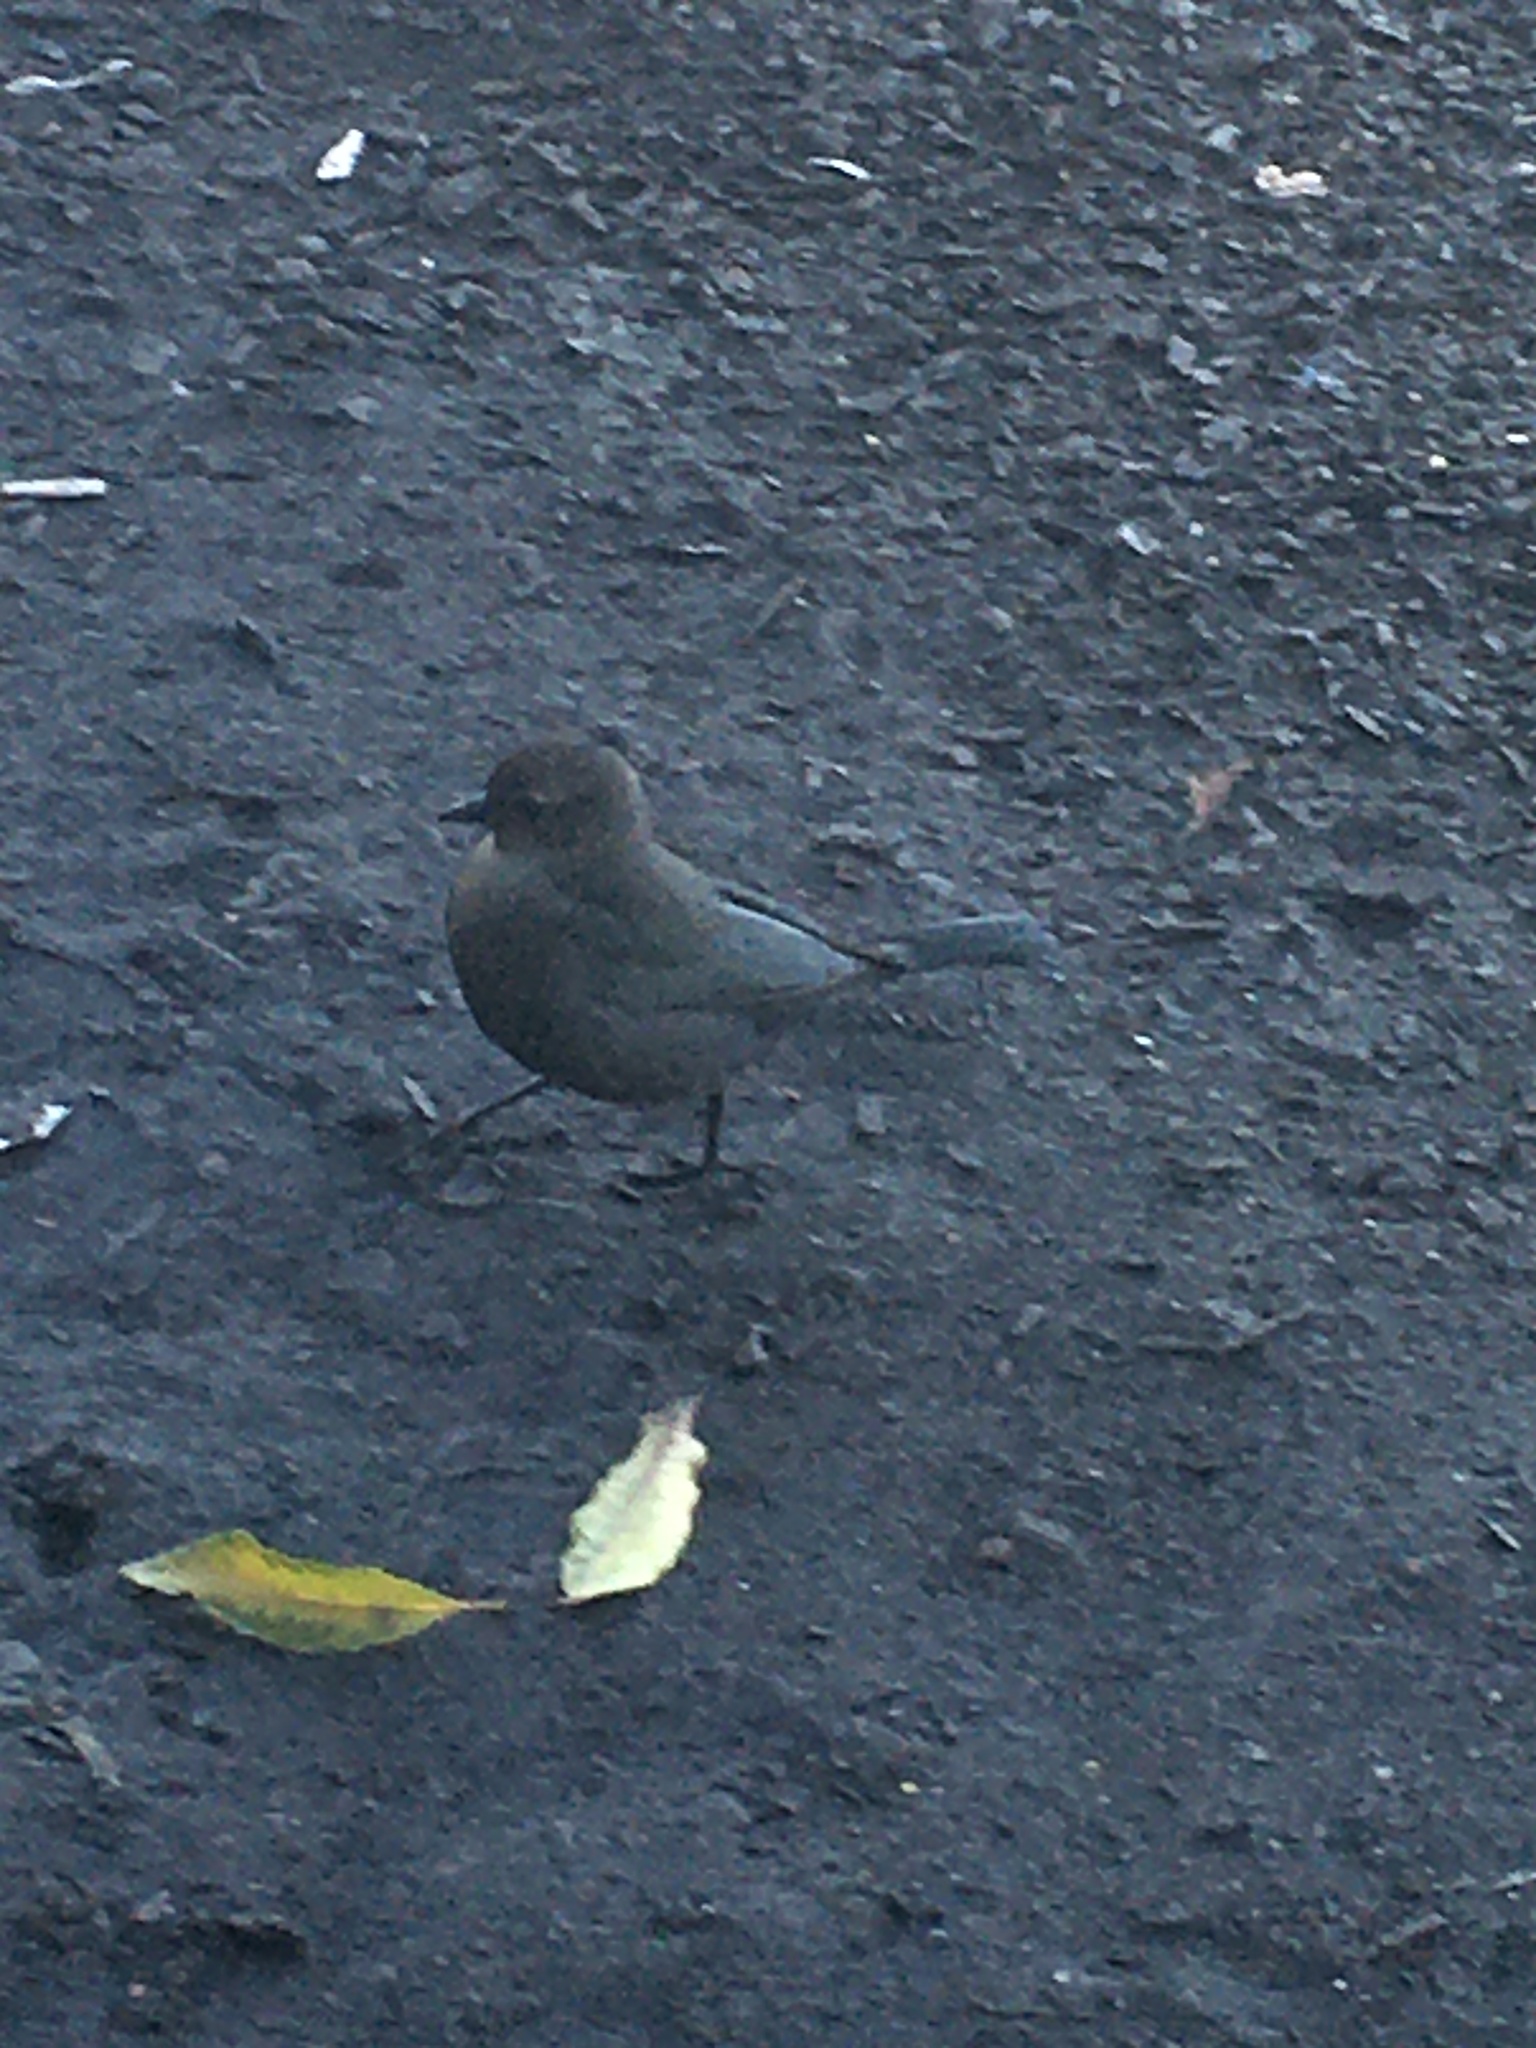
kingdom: Animalia
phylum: Chordata
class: Aves
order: Passeriformes
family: Icteridae
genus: Euphagus
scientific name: Euphagus cyanocephalus
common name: Brewer's blackbird
